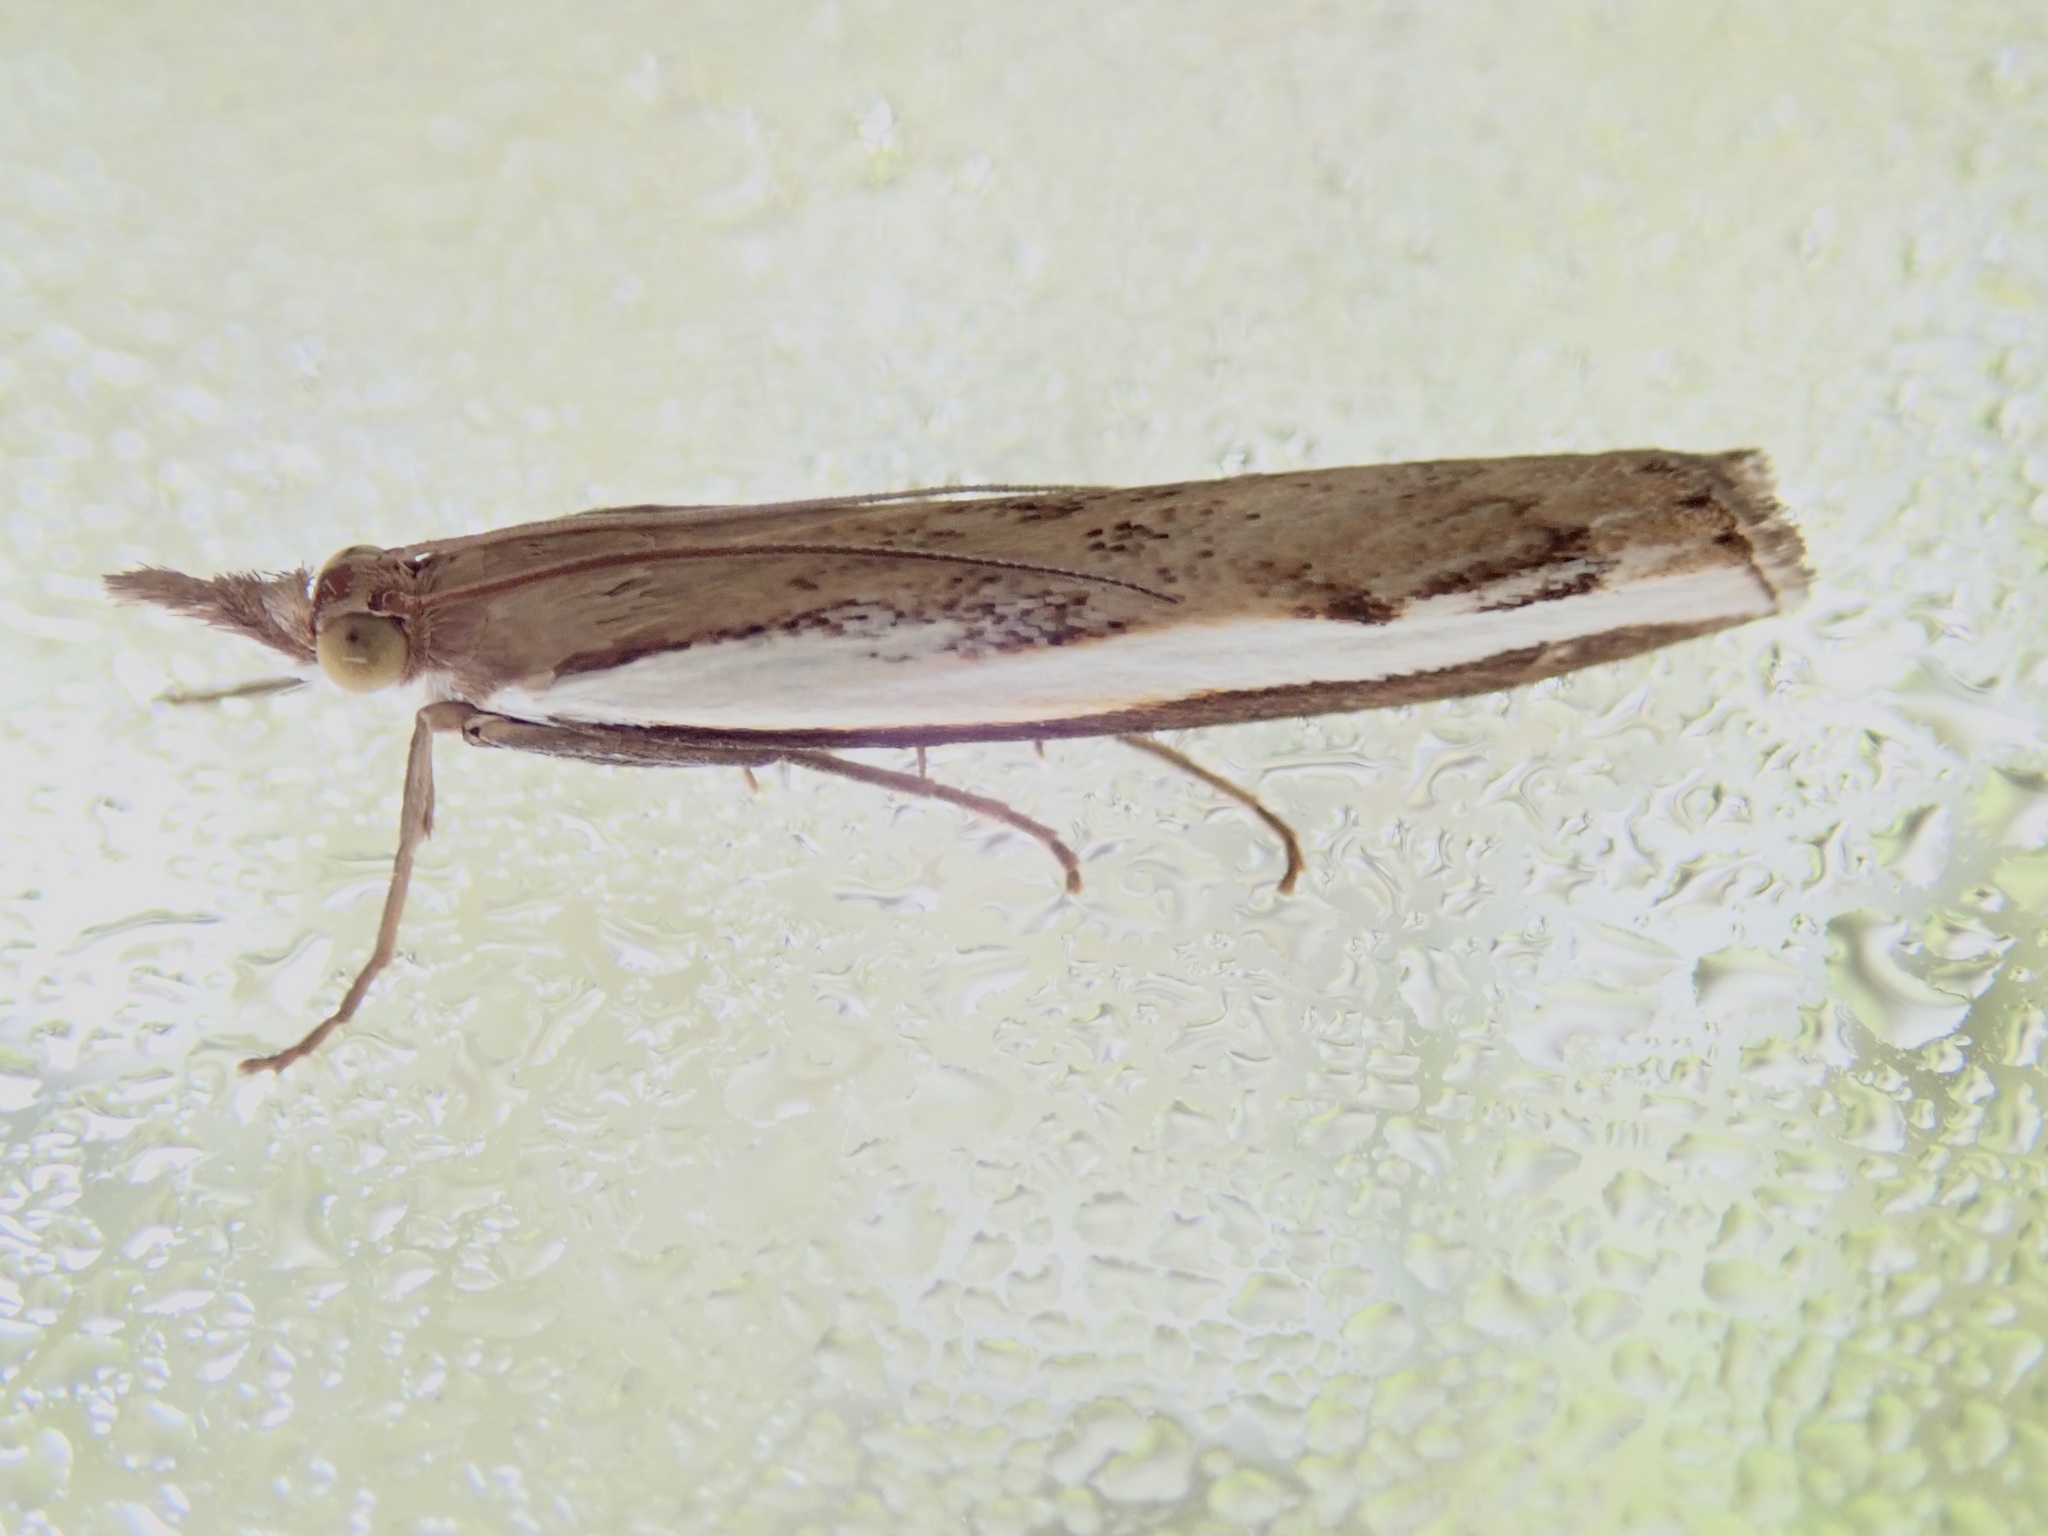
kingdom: Animalia
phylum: Arthropoda
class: Insecta
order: Lepidoptera
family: Crambidae
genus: Orocrambus
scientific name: Orocrambus flexuosellus
